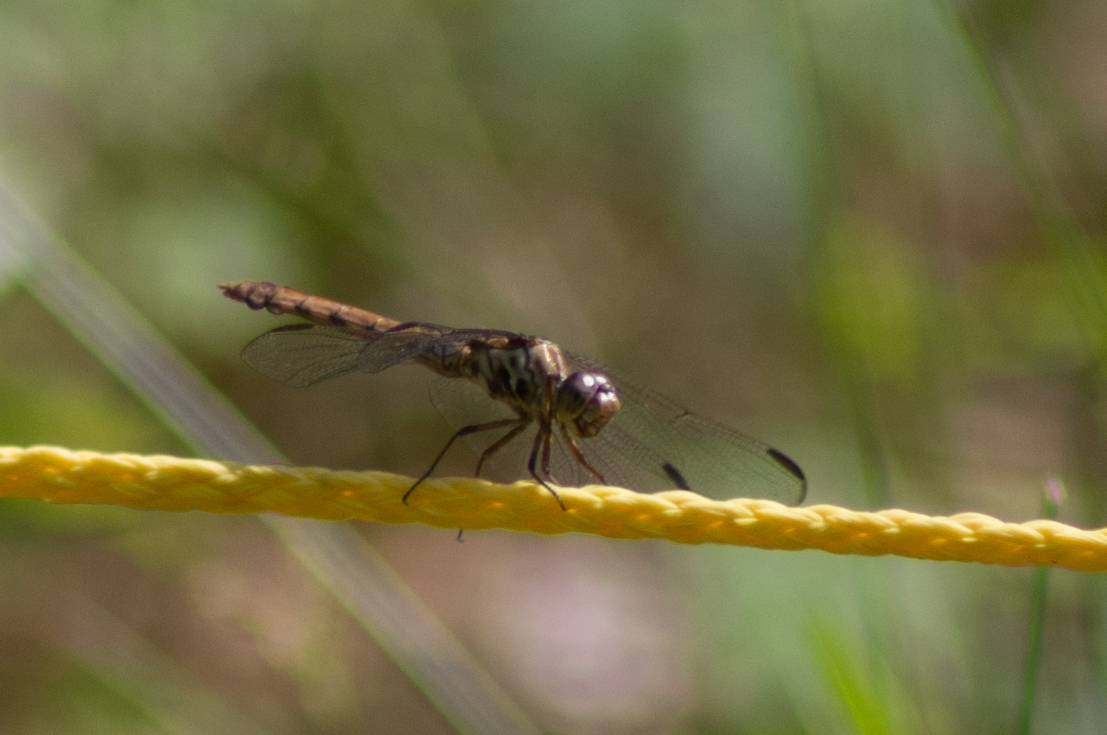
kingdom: Animalia
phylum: Arthropoda
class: Insecta
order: Odonata
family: Libellulidae
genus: Orthemis
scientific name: Orthemis ferruginea
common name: Roseate skimmer
